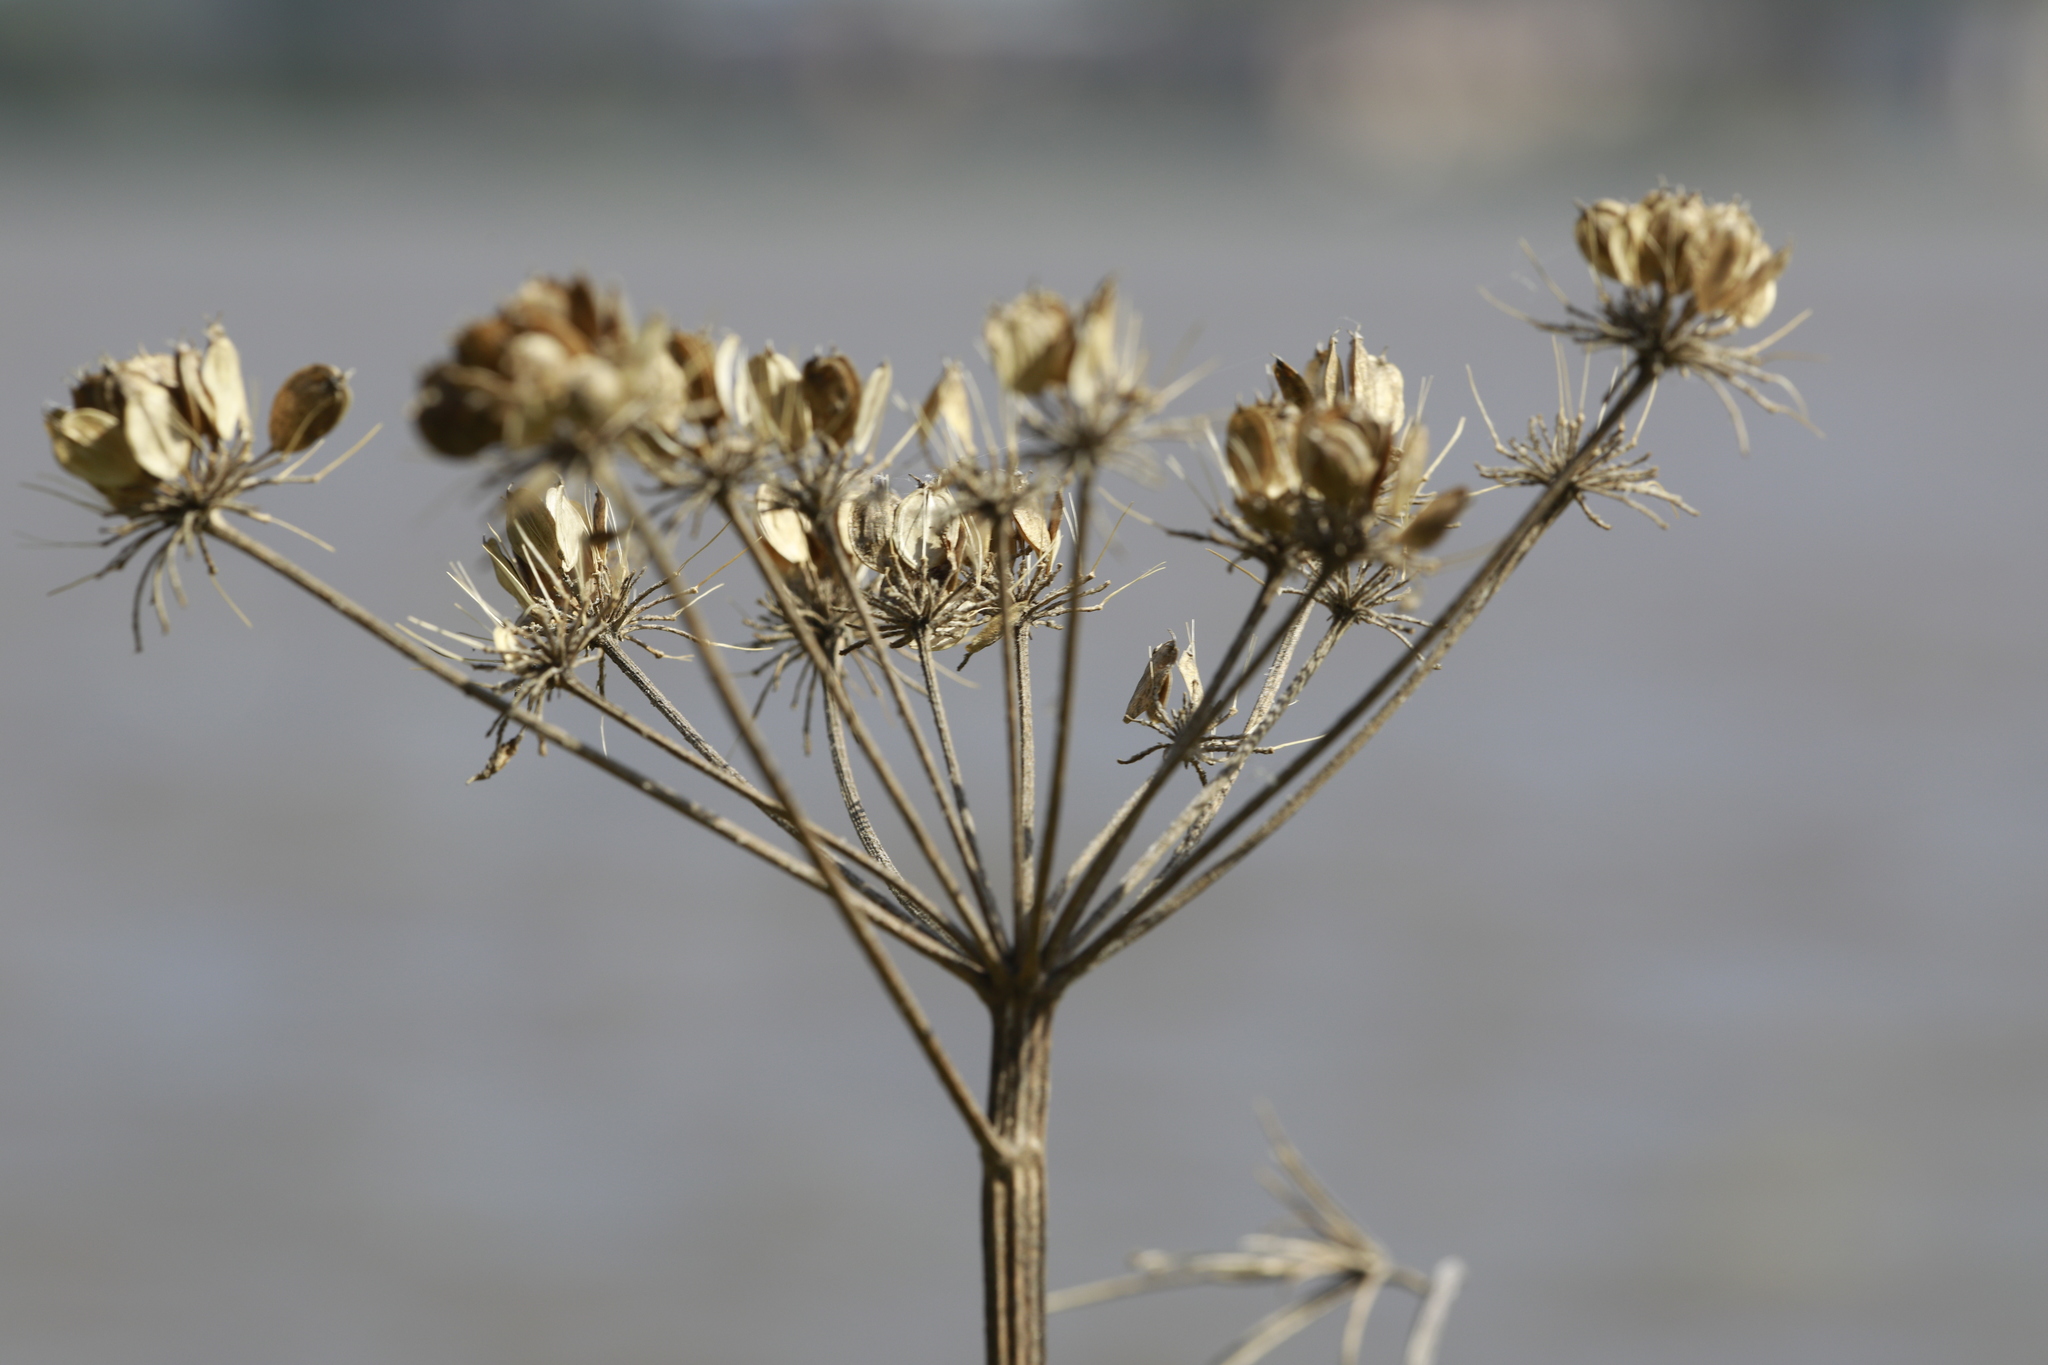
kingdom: Plantae
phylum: Tracheophyta
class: Magnoliopsida
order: Apiales
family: Apiaceae
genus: Heracleum
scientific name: Heracleum sphondylium
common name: Hogweed
